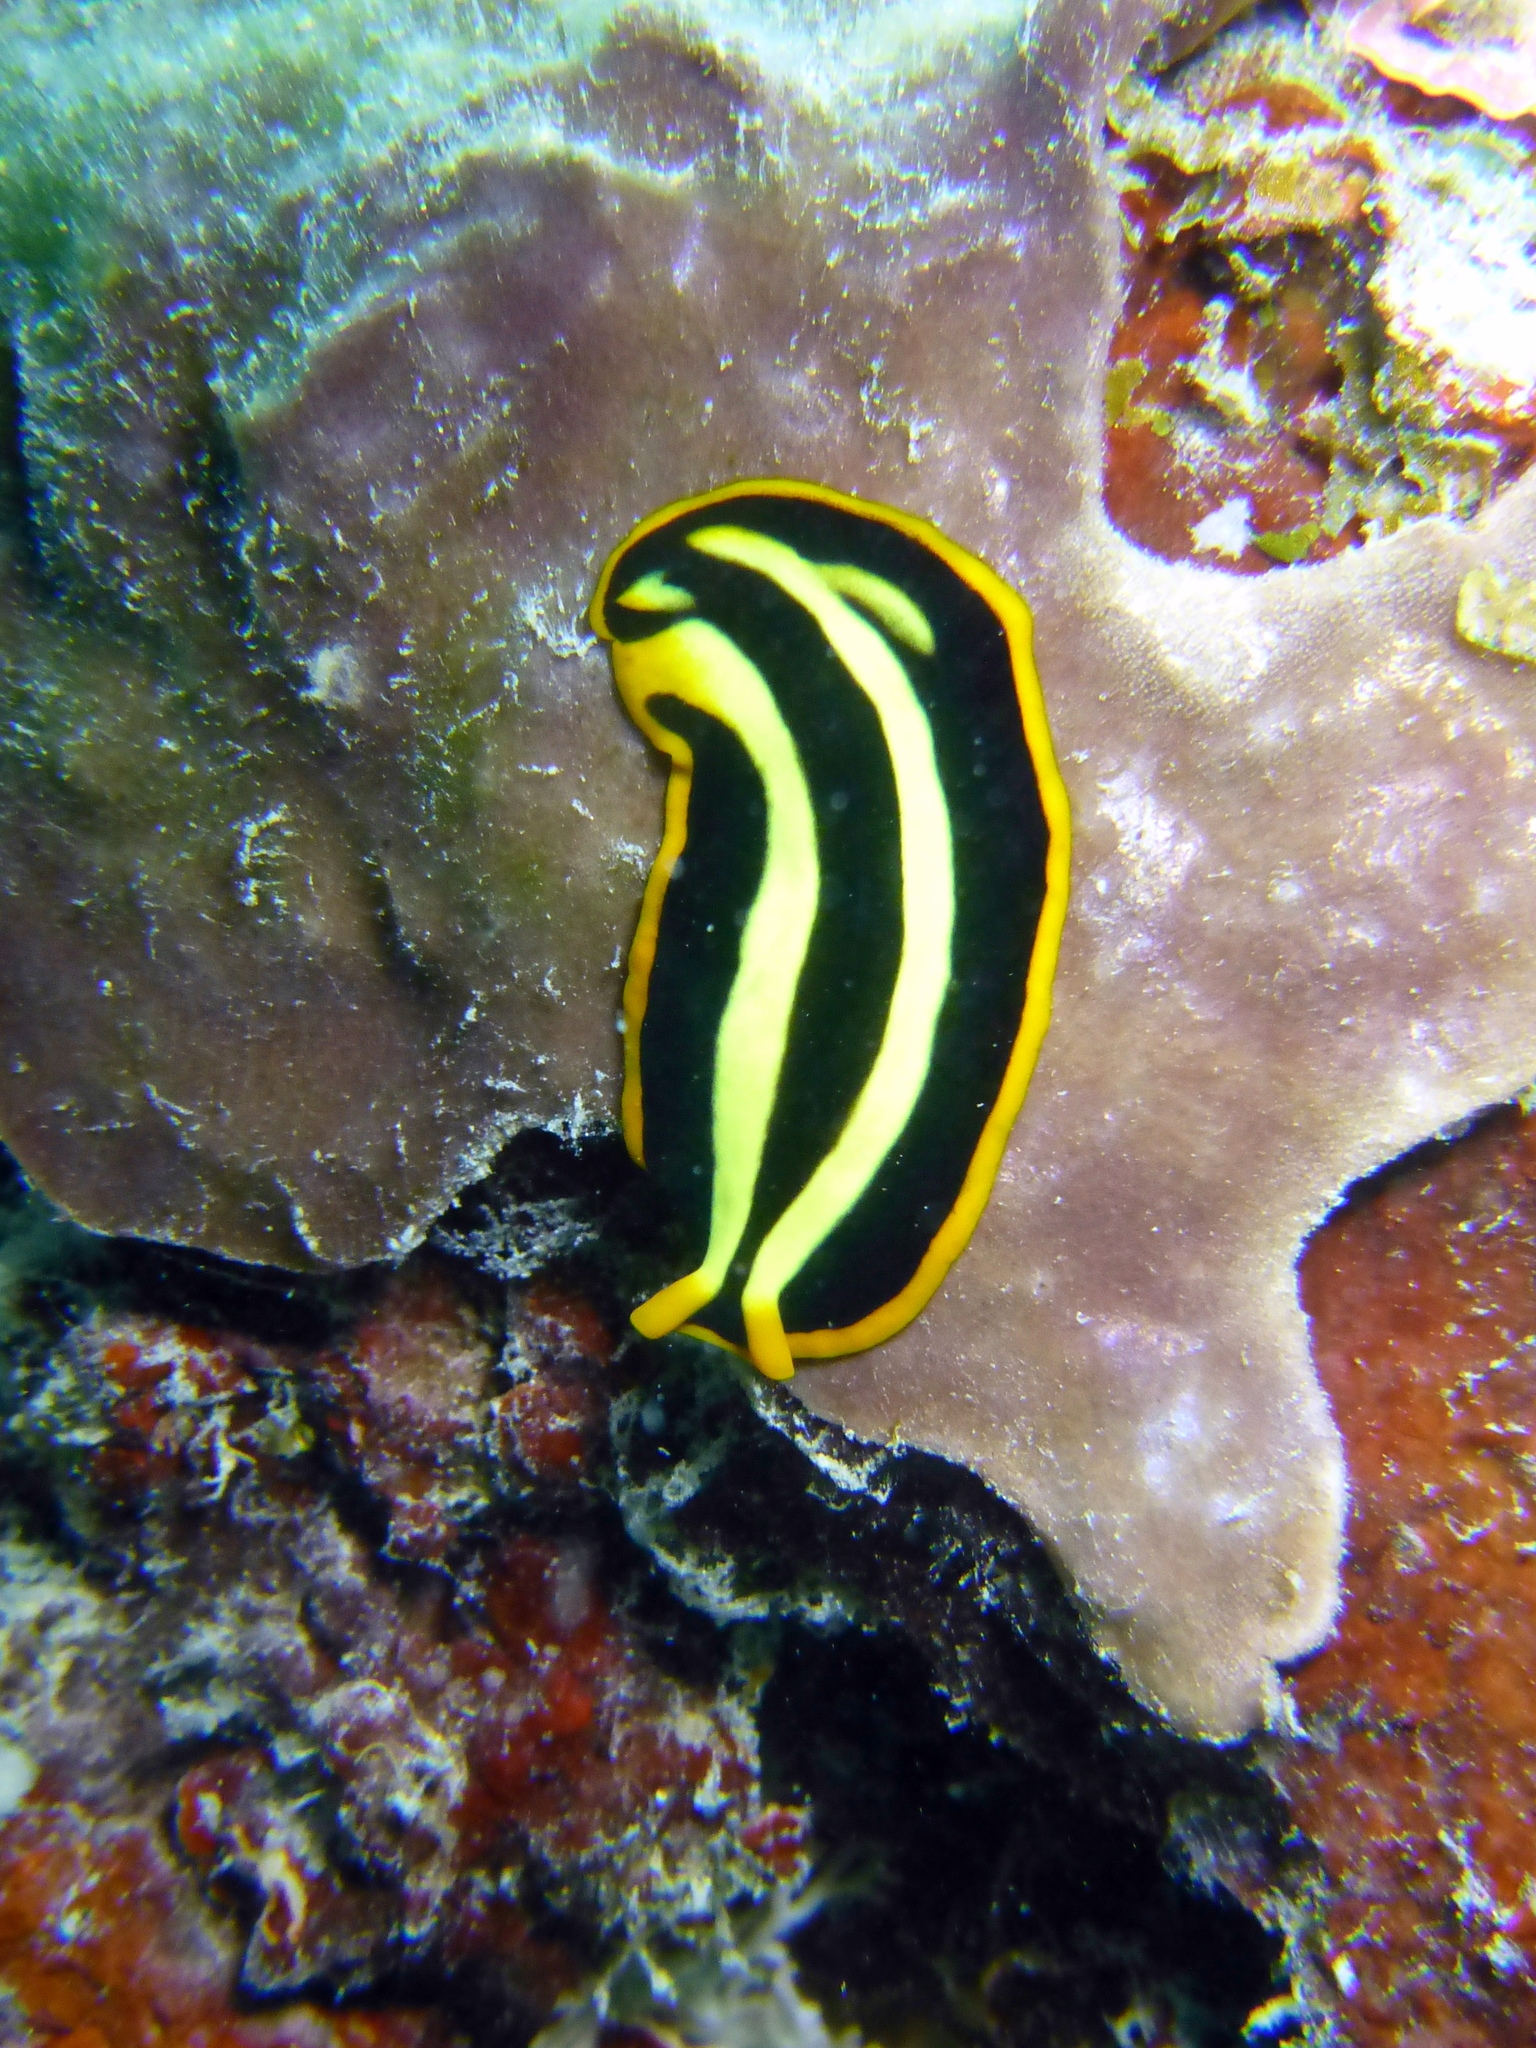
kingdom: Animalia
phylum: Platyhelminthes
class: Turbellaria
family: Pseudocerotidae
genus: Pseudoceros
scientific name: Pseudoceros dimidiatus
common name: Divided flatworm
